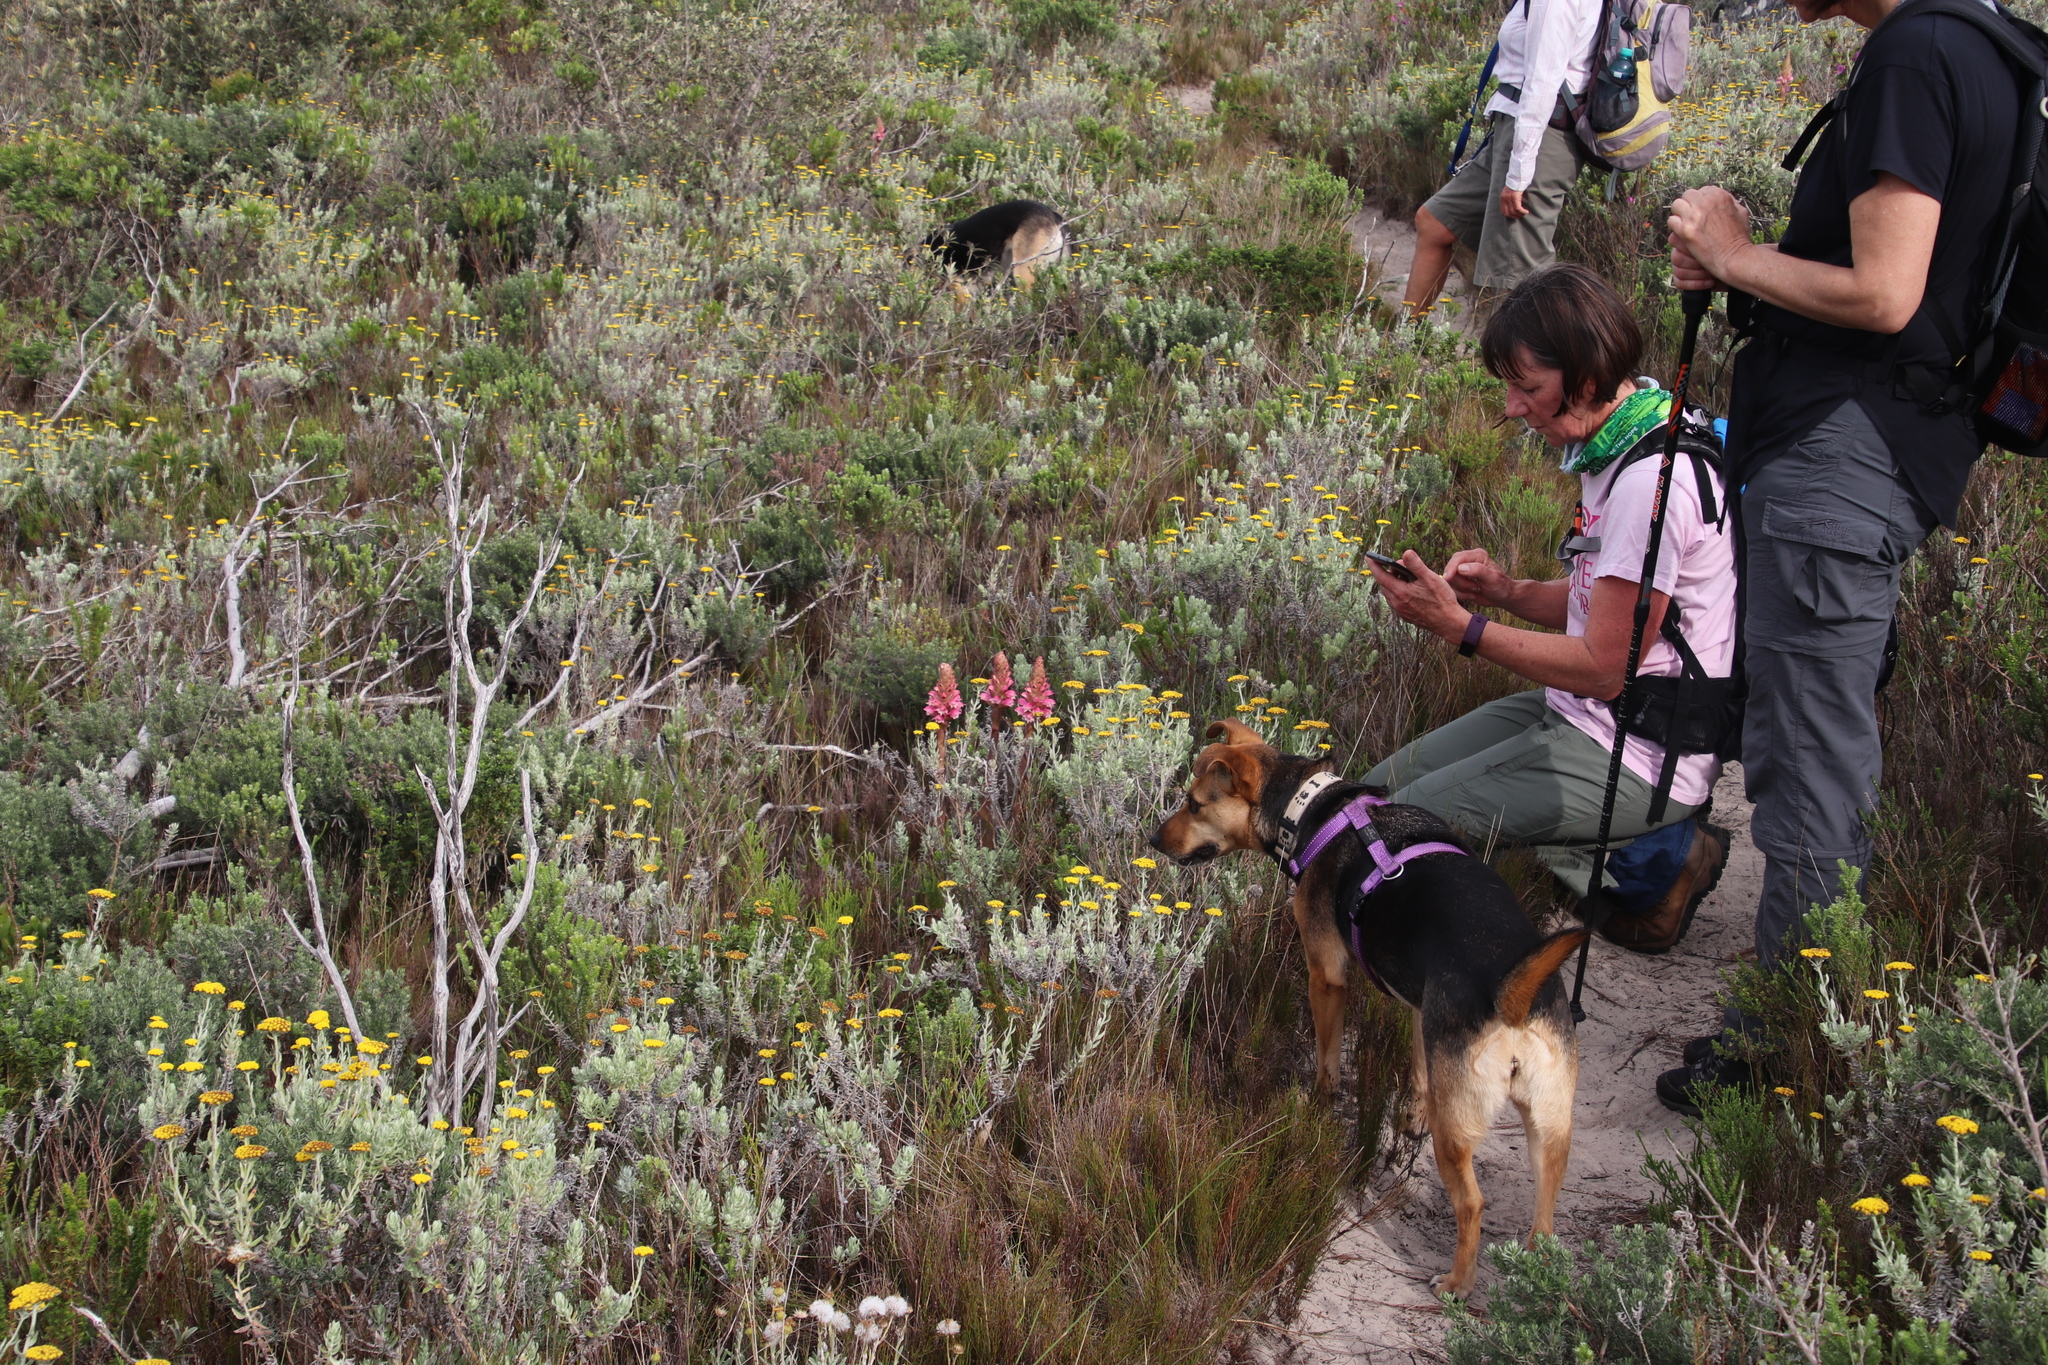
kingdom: Plantae
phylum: Tracheophyta
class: Liliopsida
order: Asparagales
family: Orchidaceae
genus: Satyrium
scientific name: Satyrium carneum
